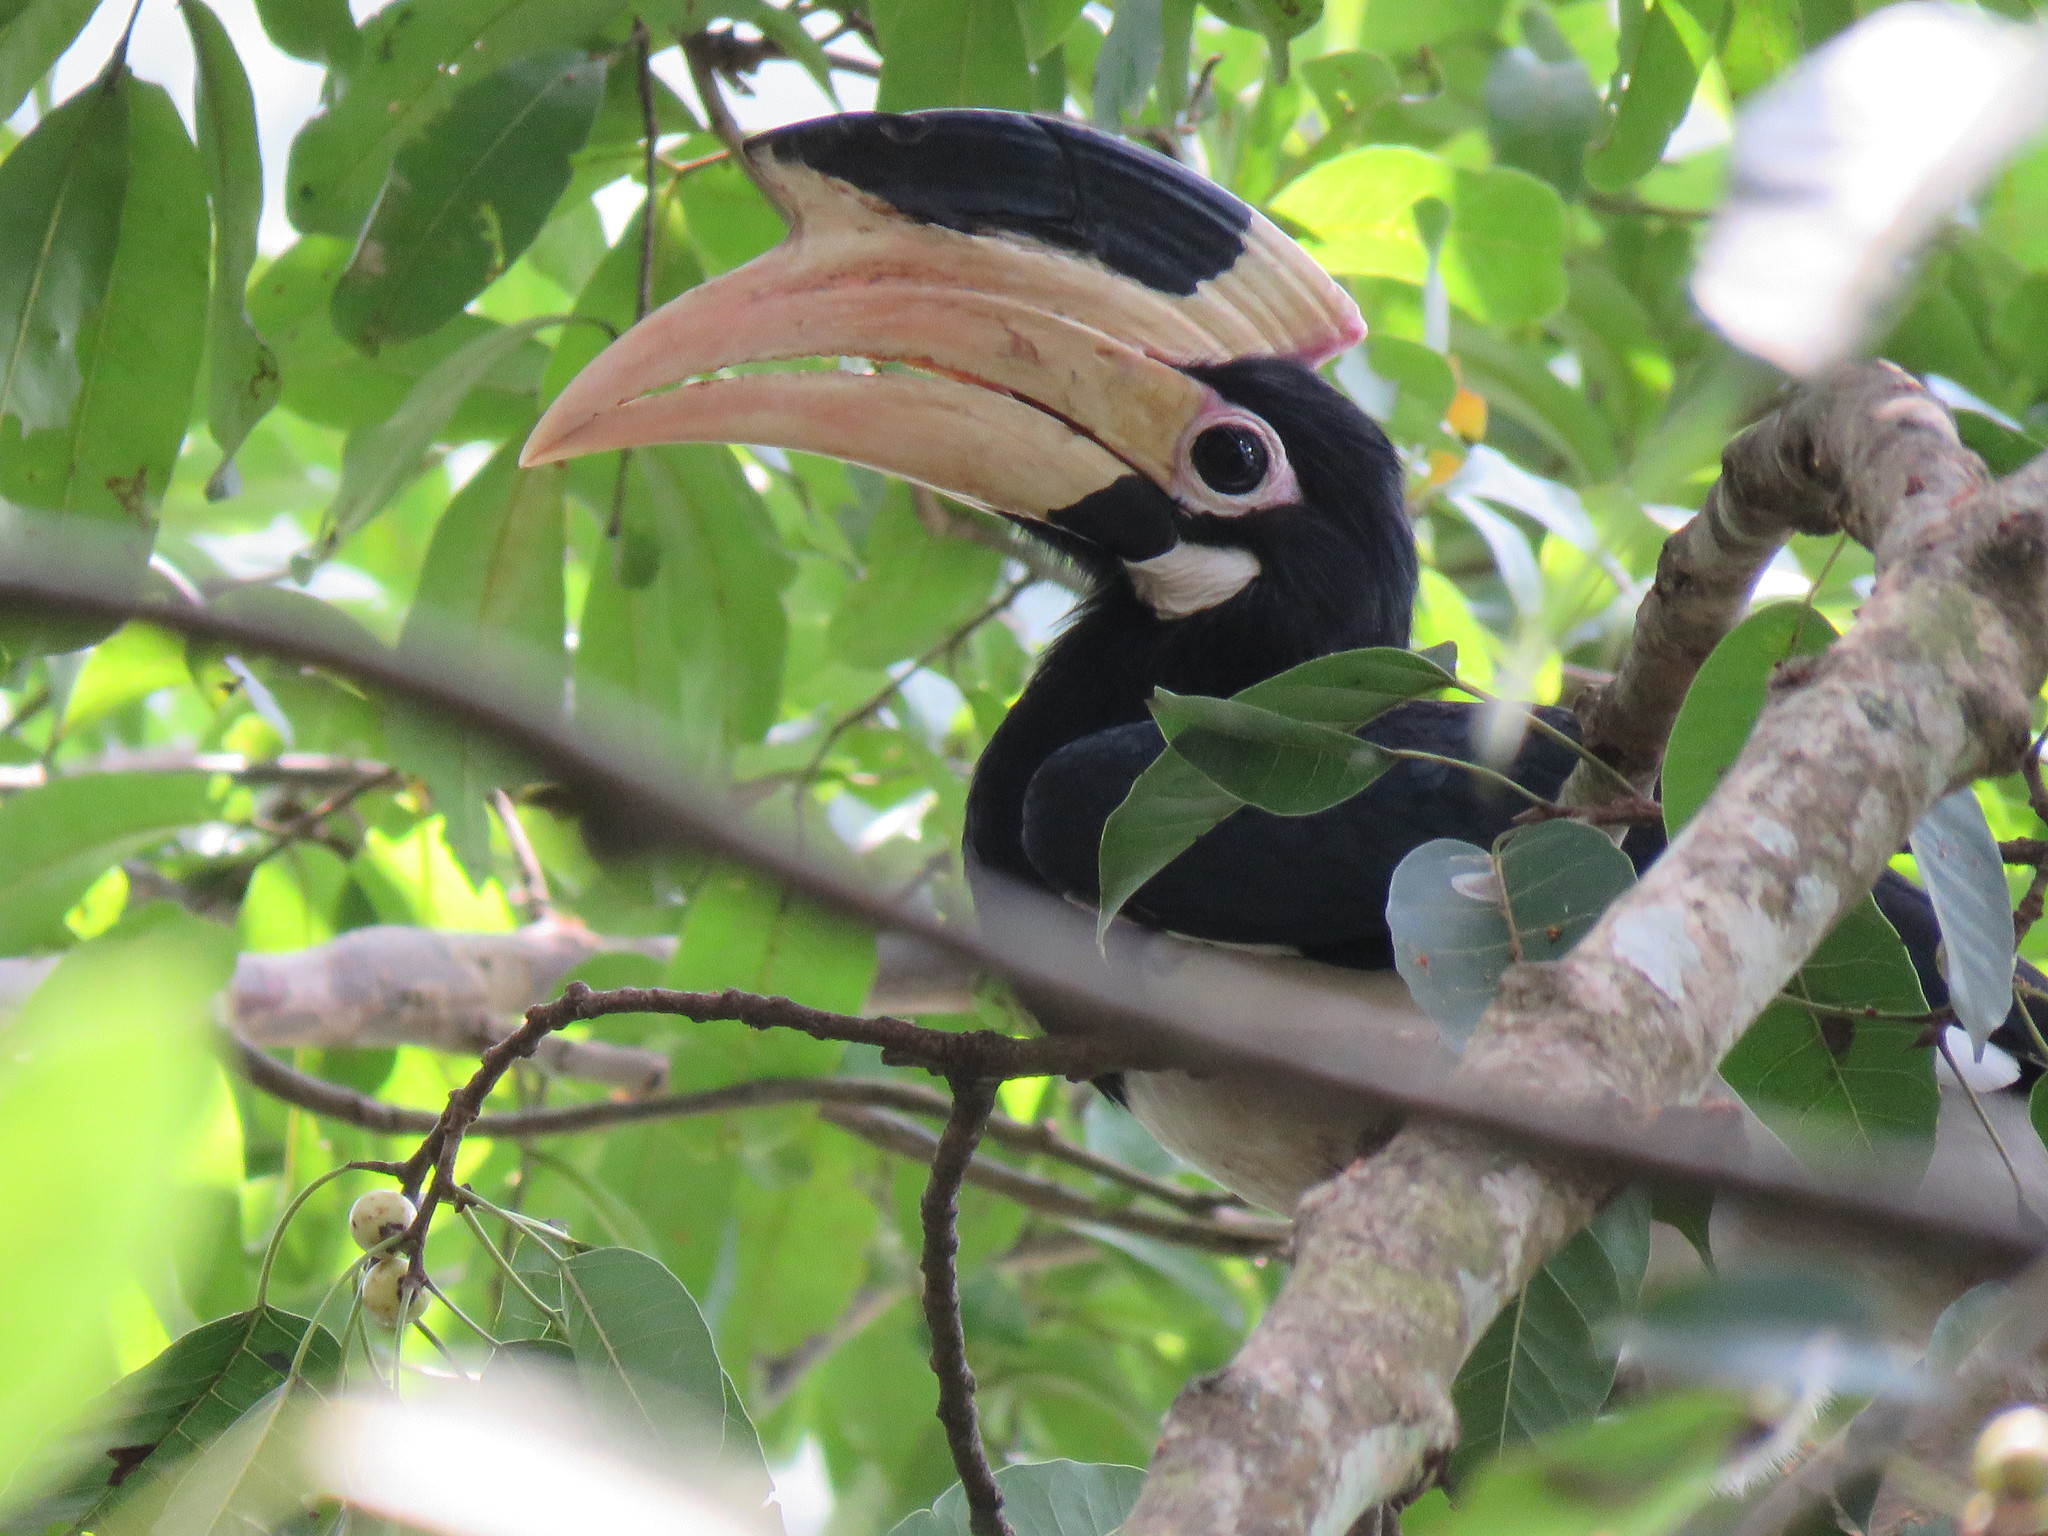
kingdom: Animalia
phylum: Chordata
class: Aves
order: Bucerotiformes
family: Bucerotidae
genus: Anthracoceros
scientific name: Anthracoceros coronatus
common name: Malabar pied hornbill
